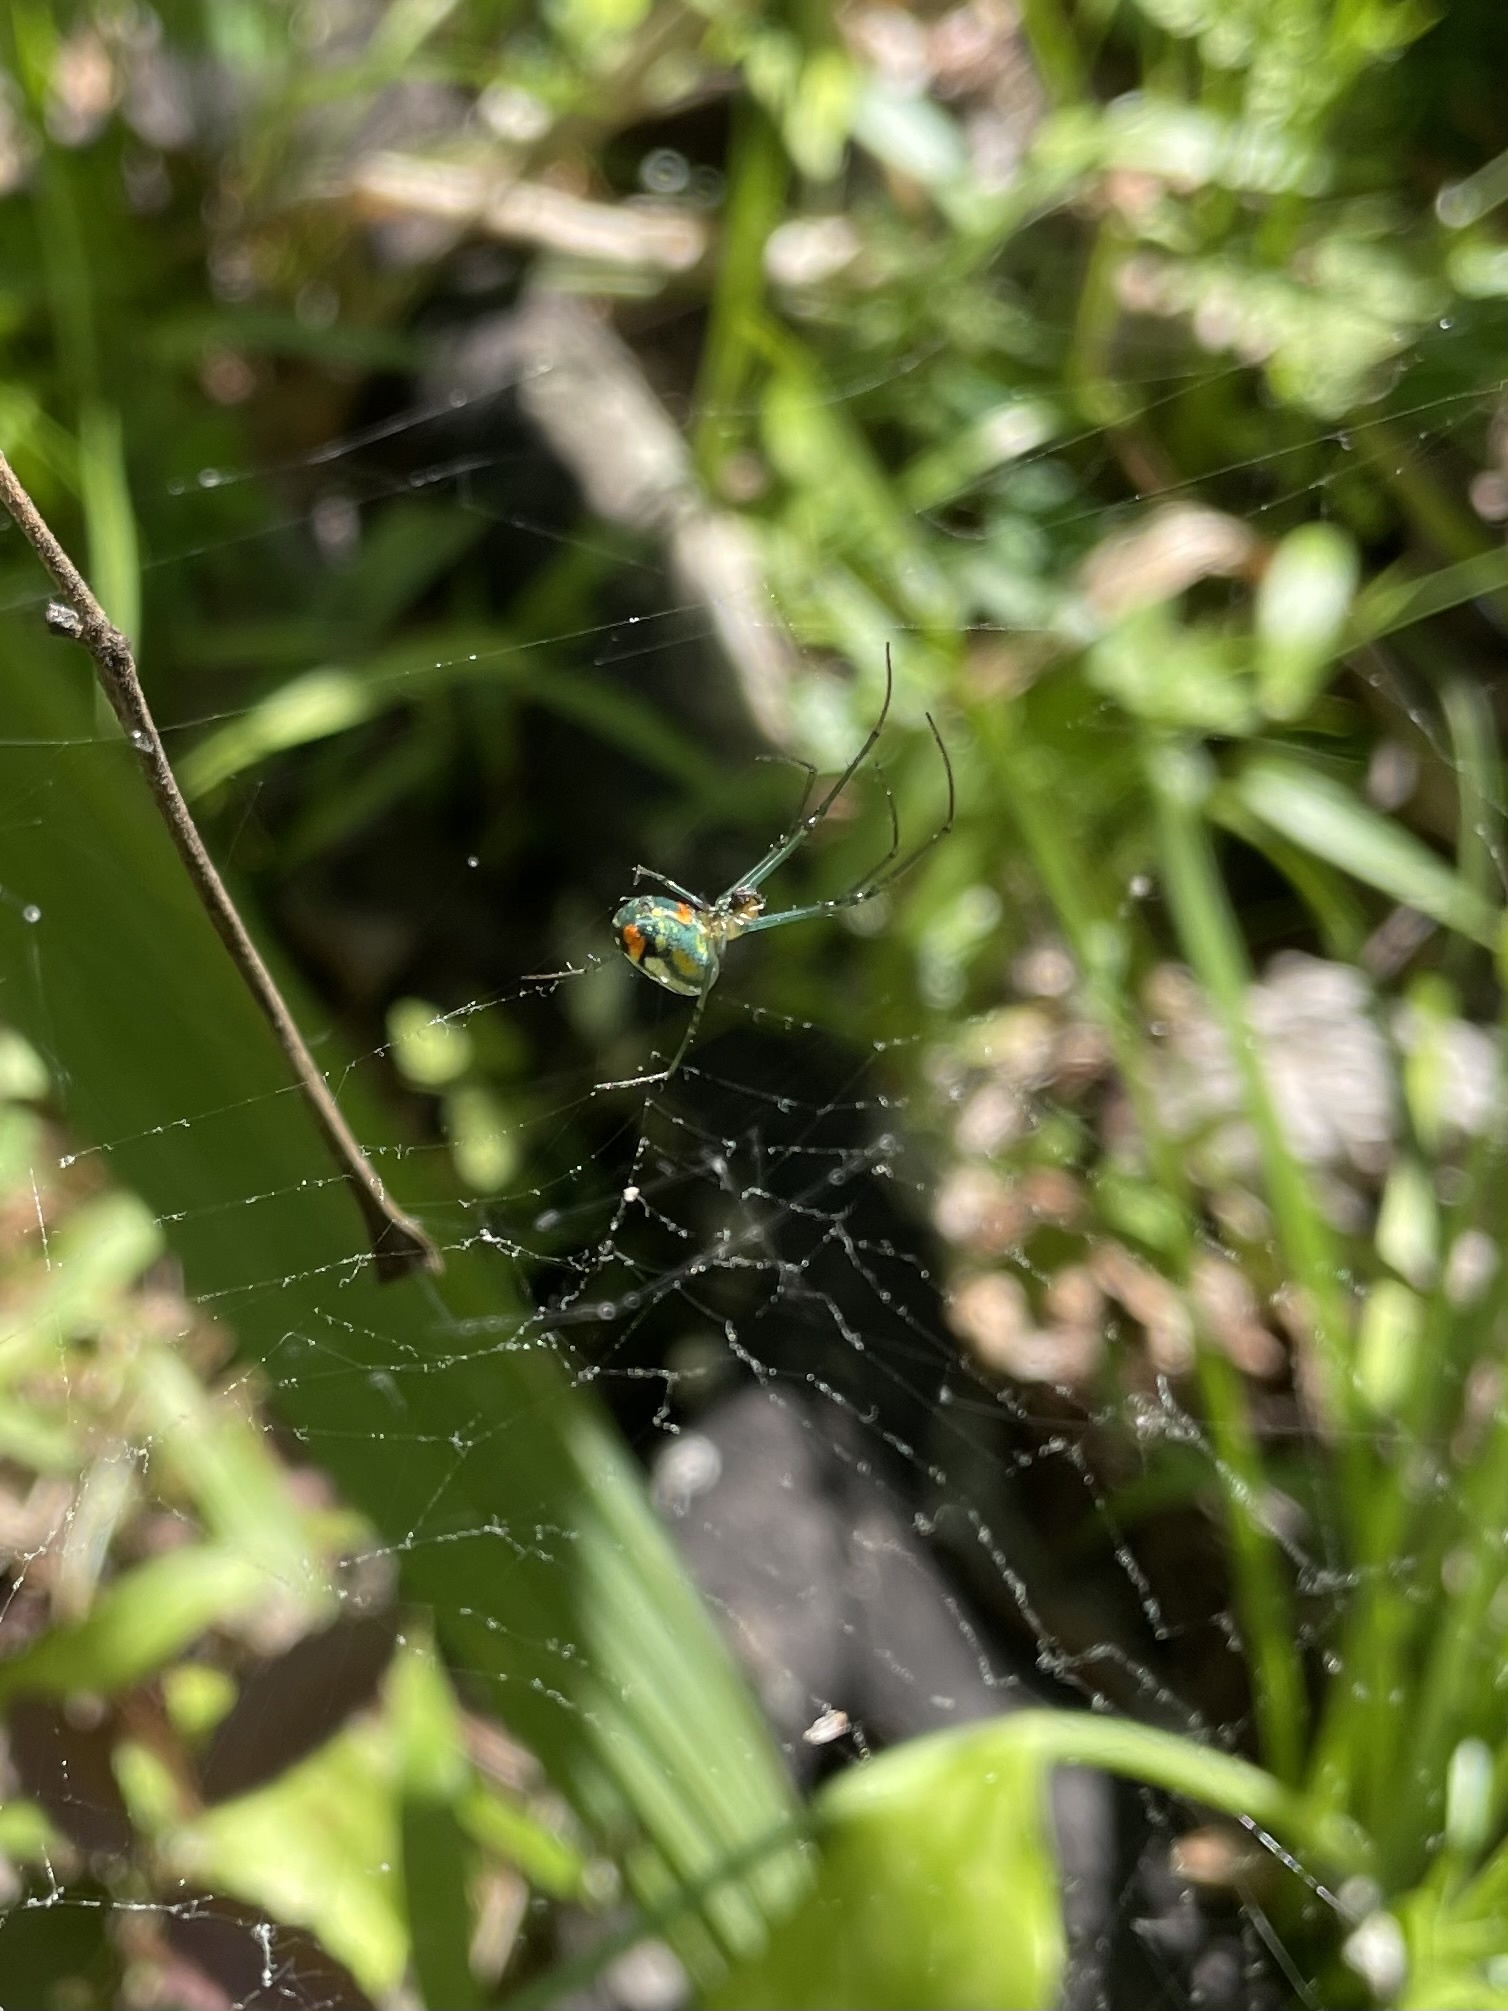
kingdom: Animalia
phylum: Arthropoda
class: Arachnida
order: Araneae
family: Tetragnathidae
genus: Leucauge
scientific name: Leucauge argyrobapta
